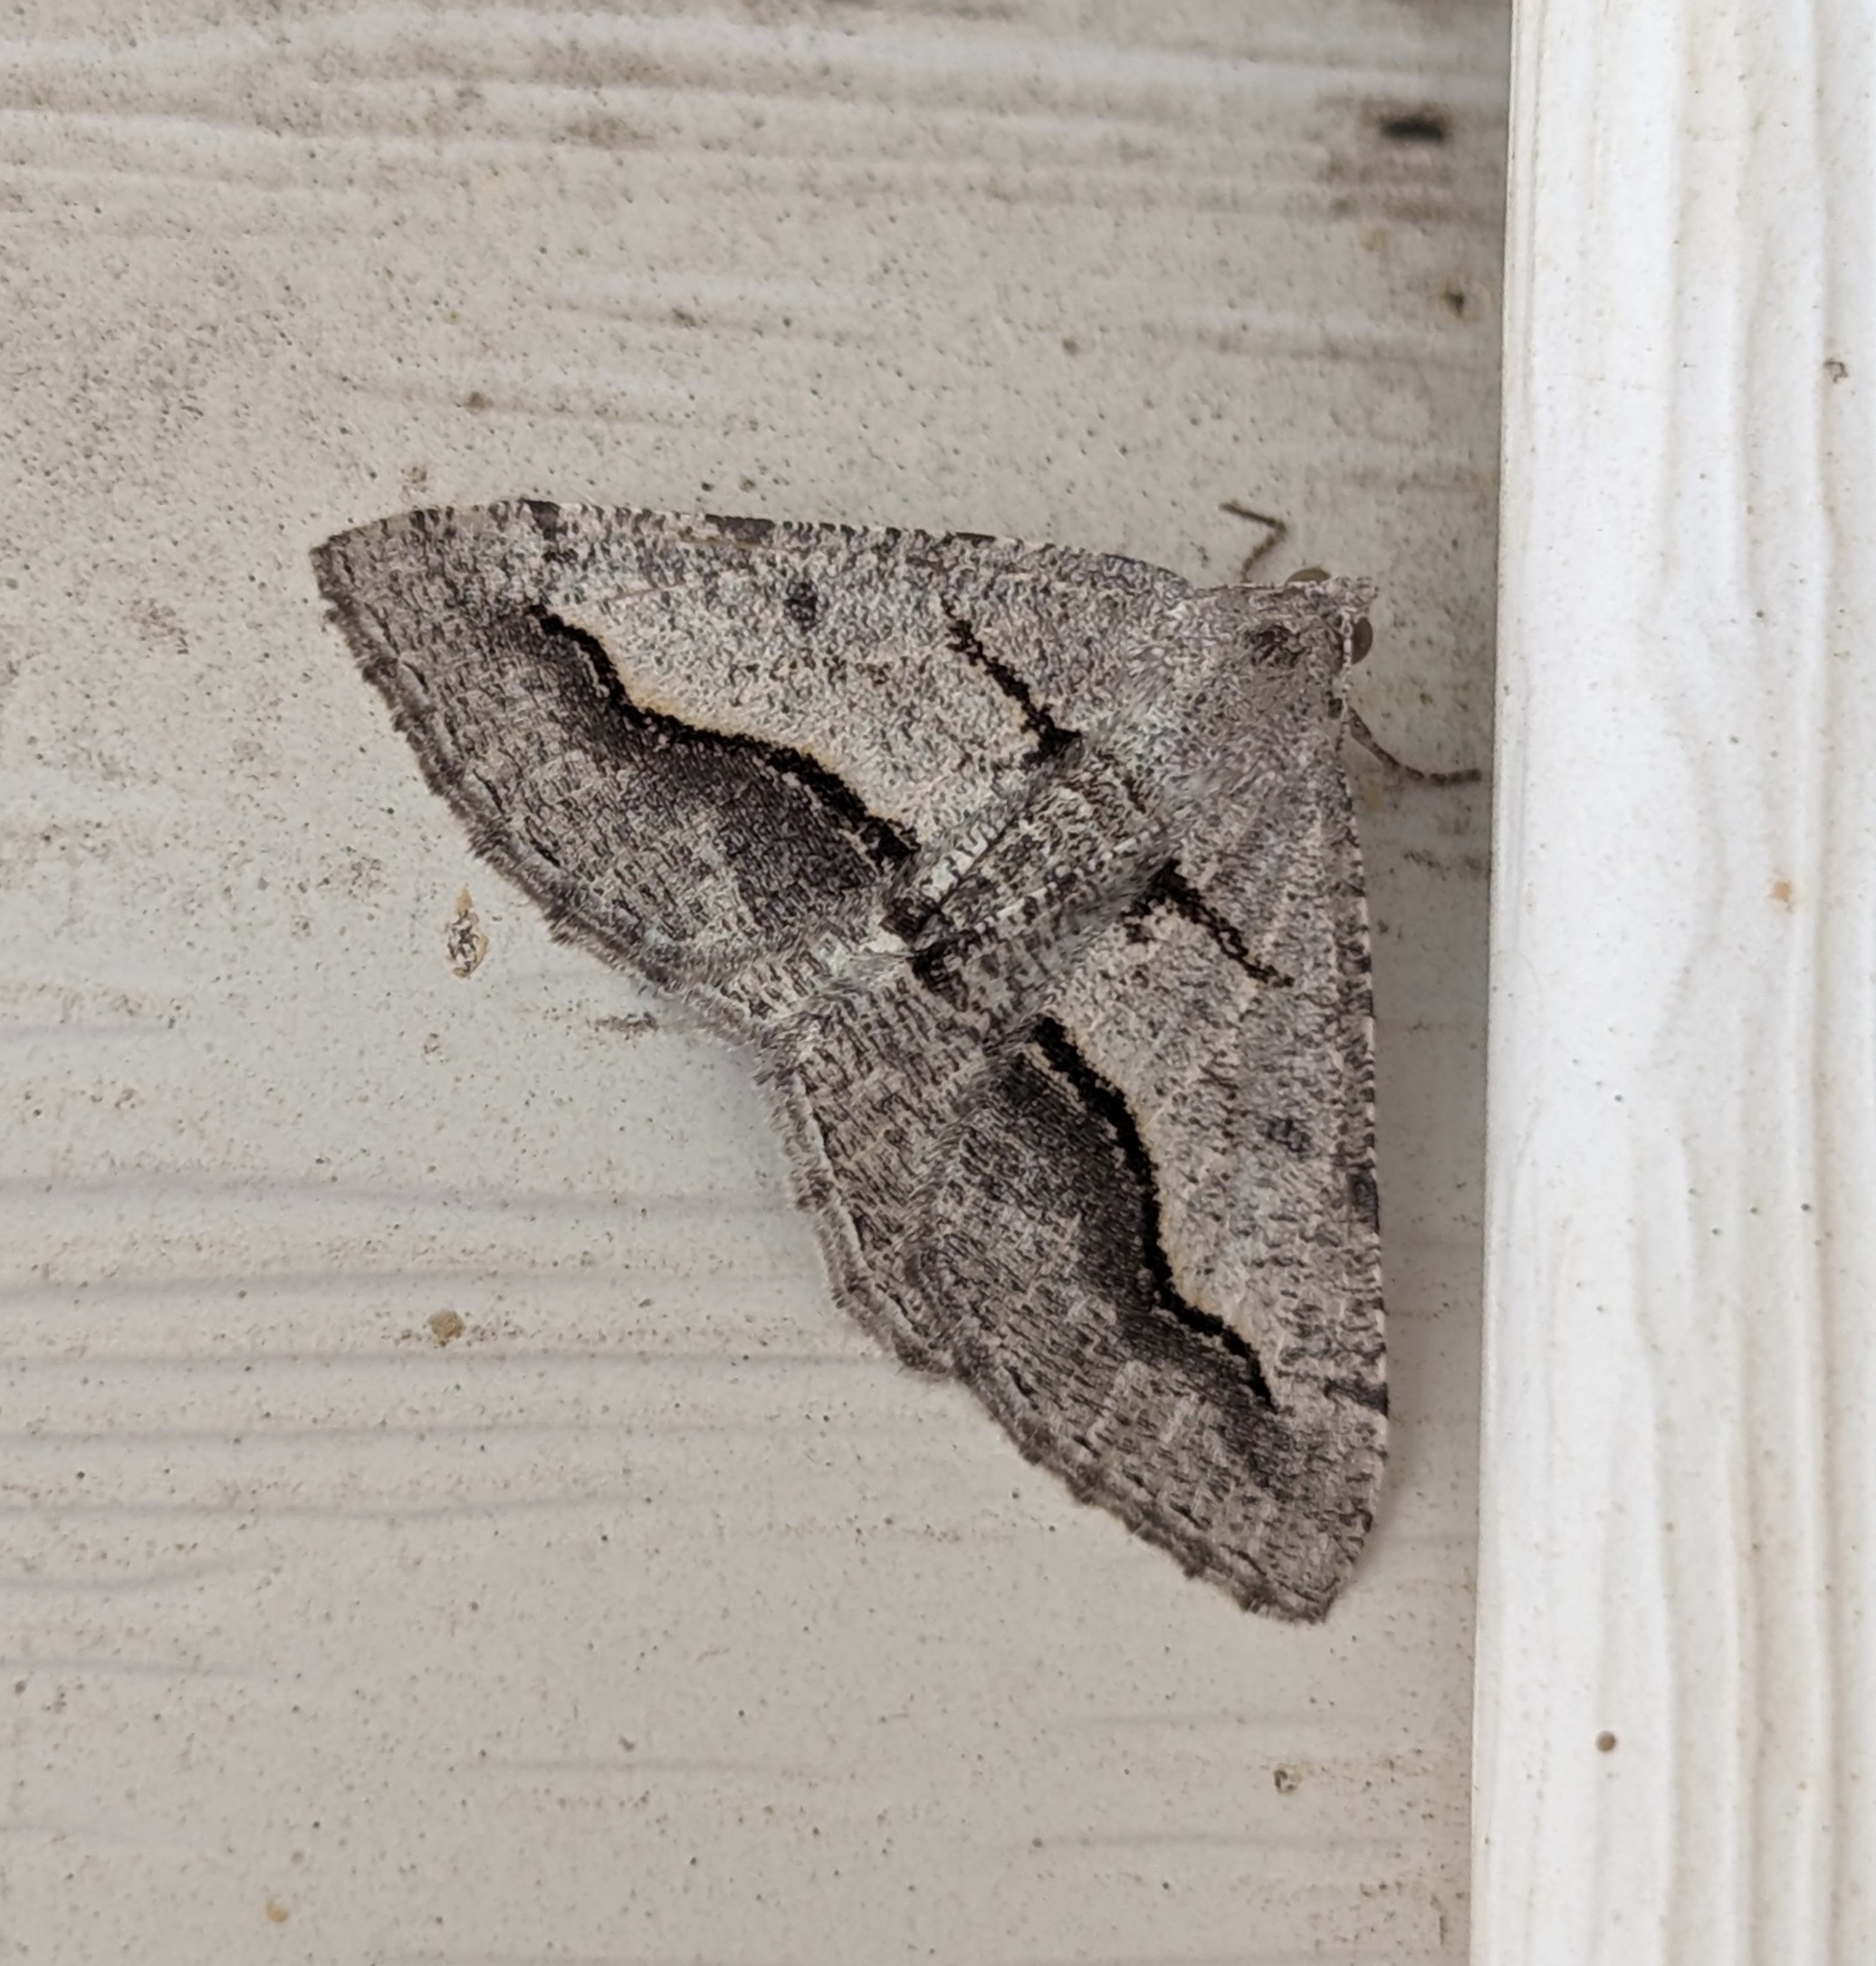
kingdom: Animalia
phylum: Arthropoda
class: Insecta
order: Lepidoptera
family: Geometridae
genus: Digrammia
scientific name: Digrammia curvata
